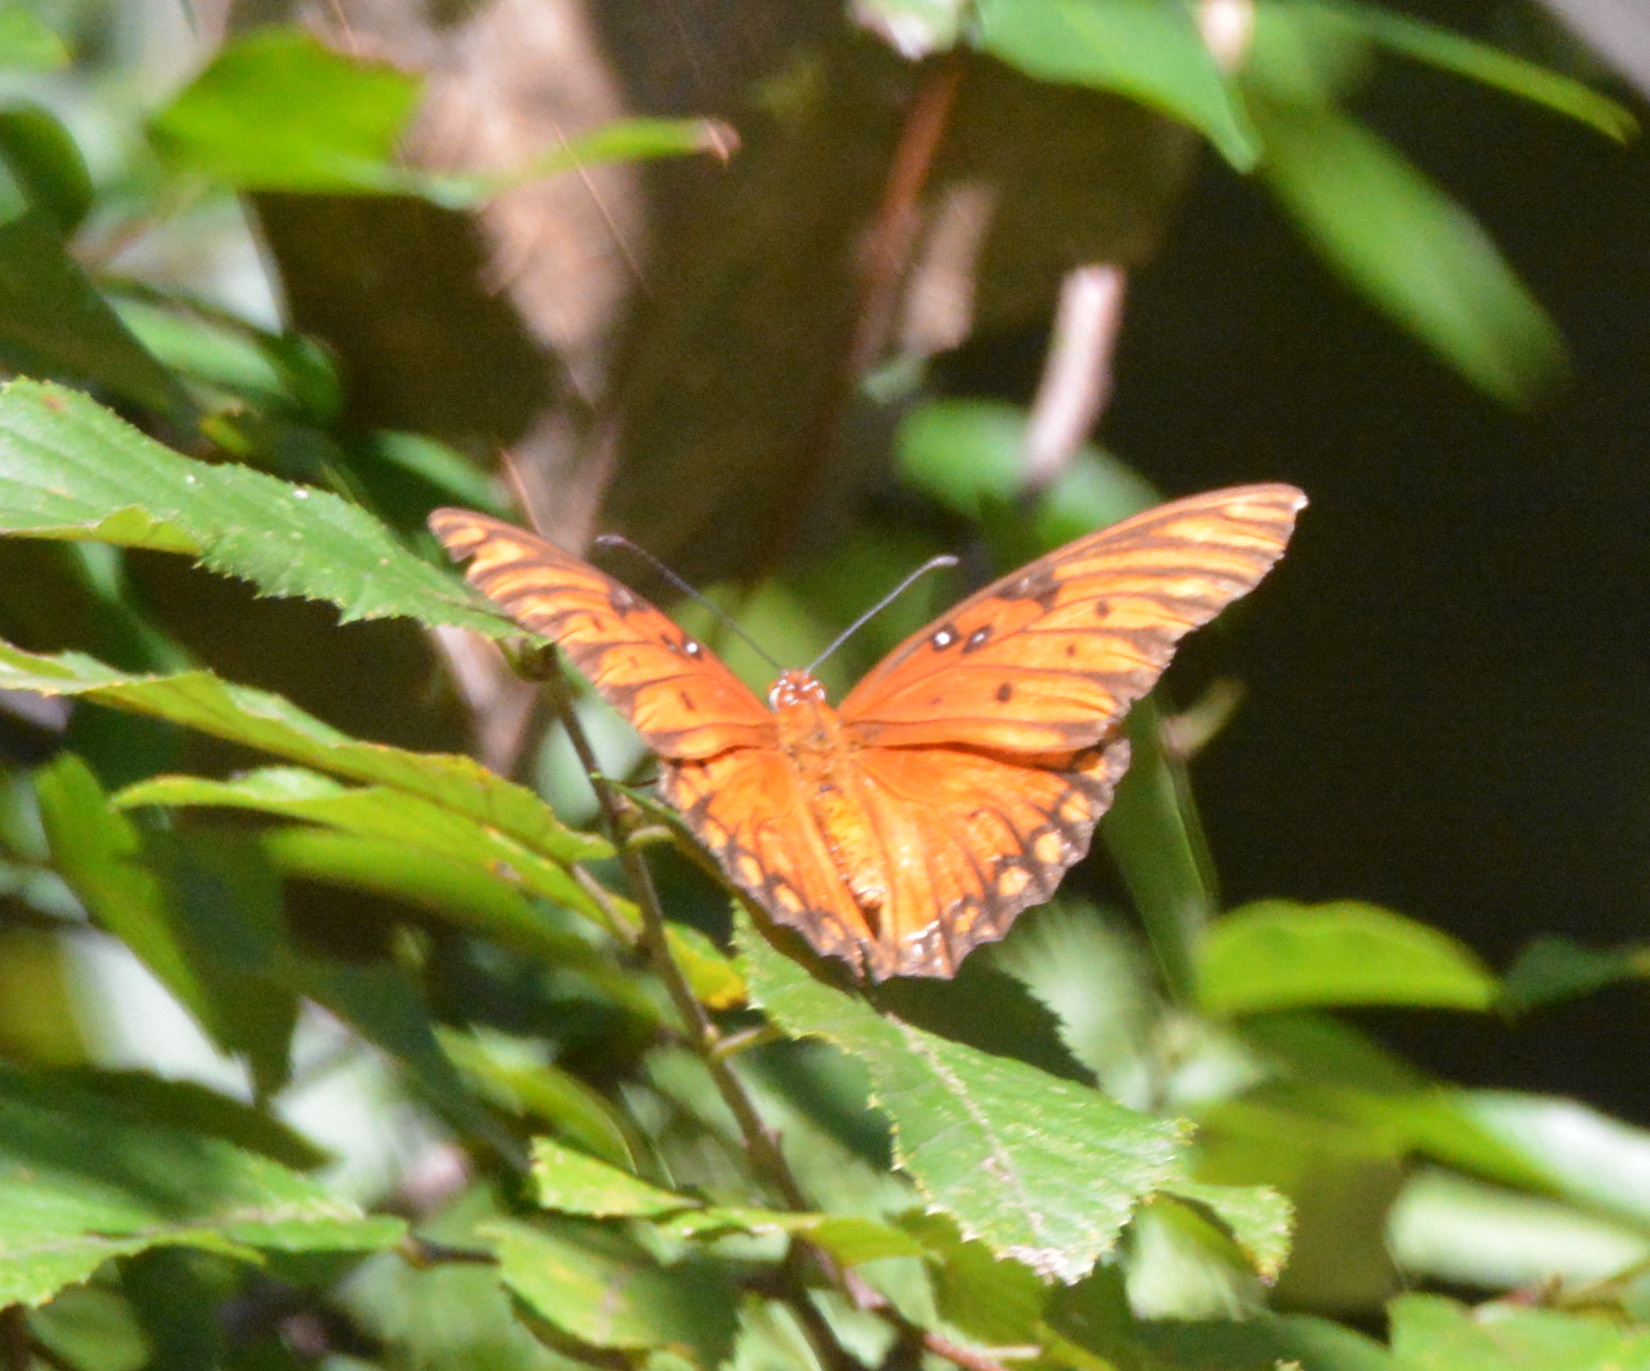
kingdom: Animalia
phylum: Arthropoda
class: Insecta
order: Lepidoptera
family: Nymphalidae
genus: Dione
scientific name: Dione vanillae
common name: Gulf fritillary
